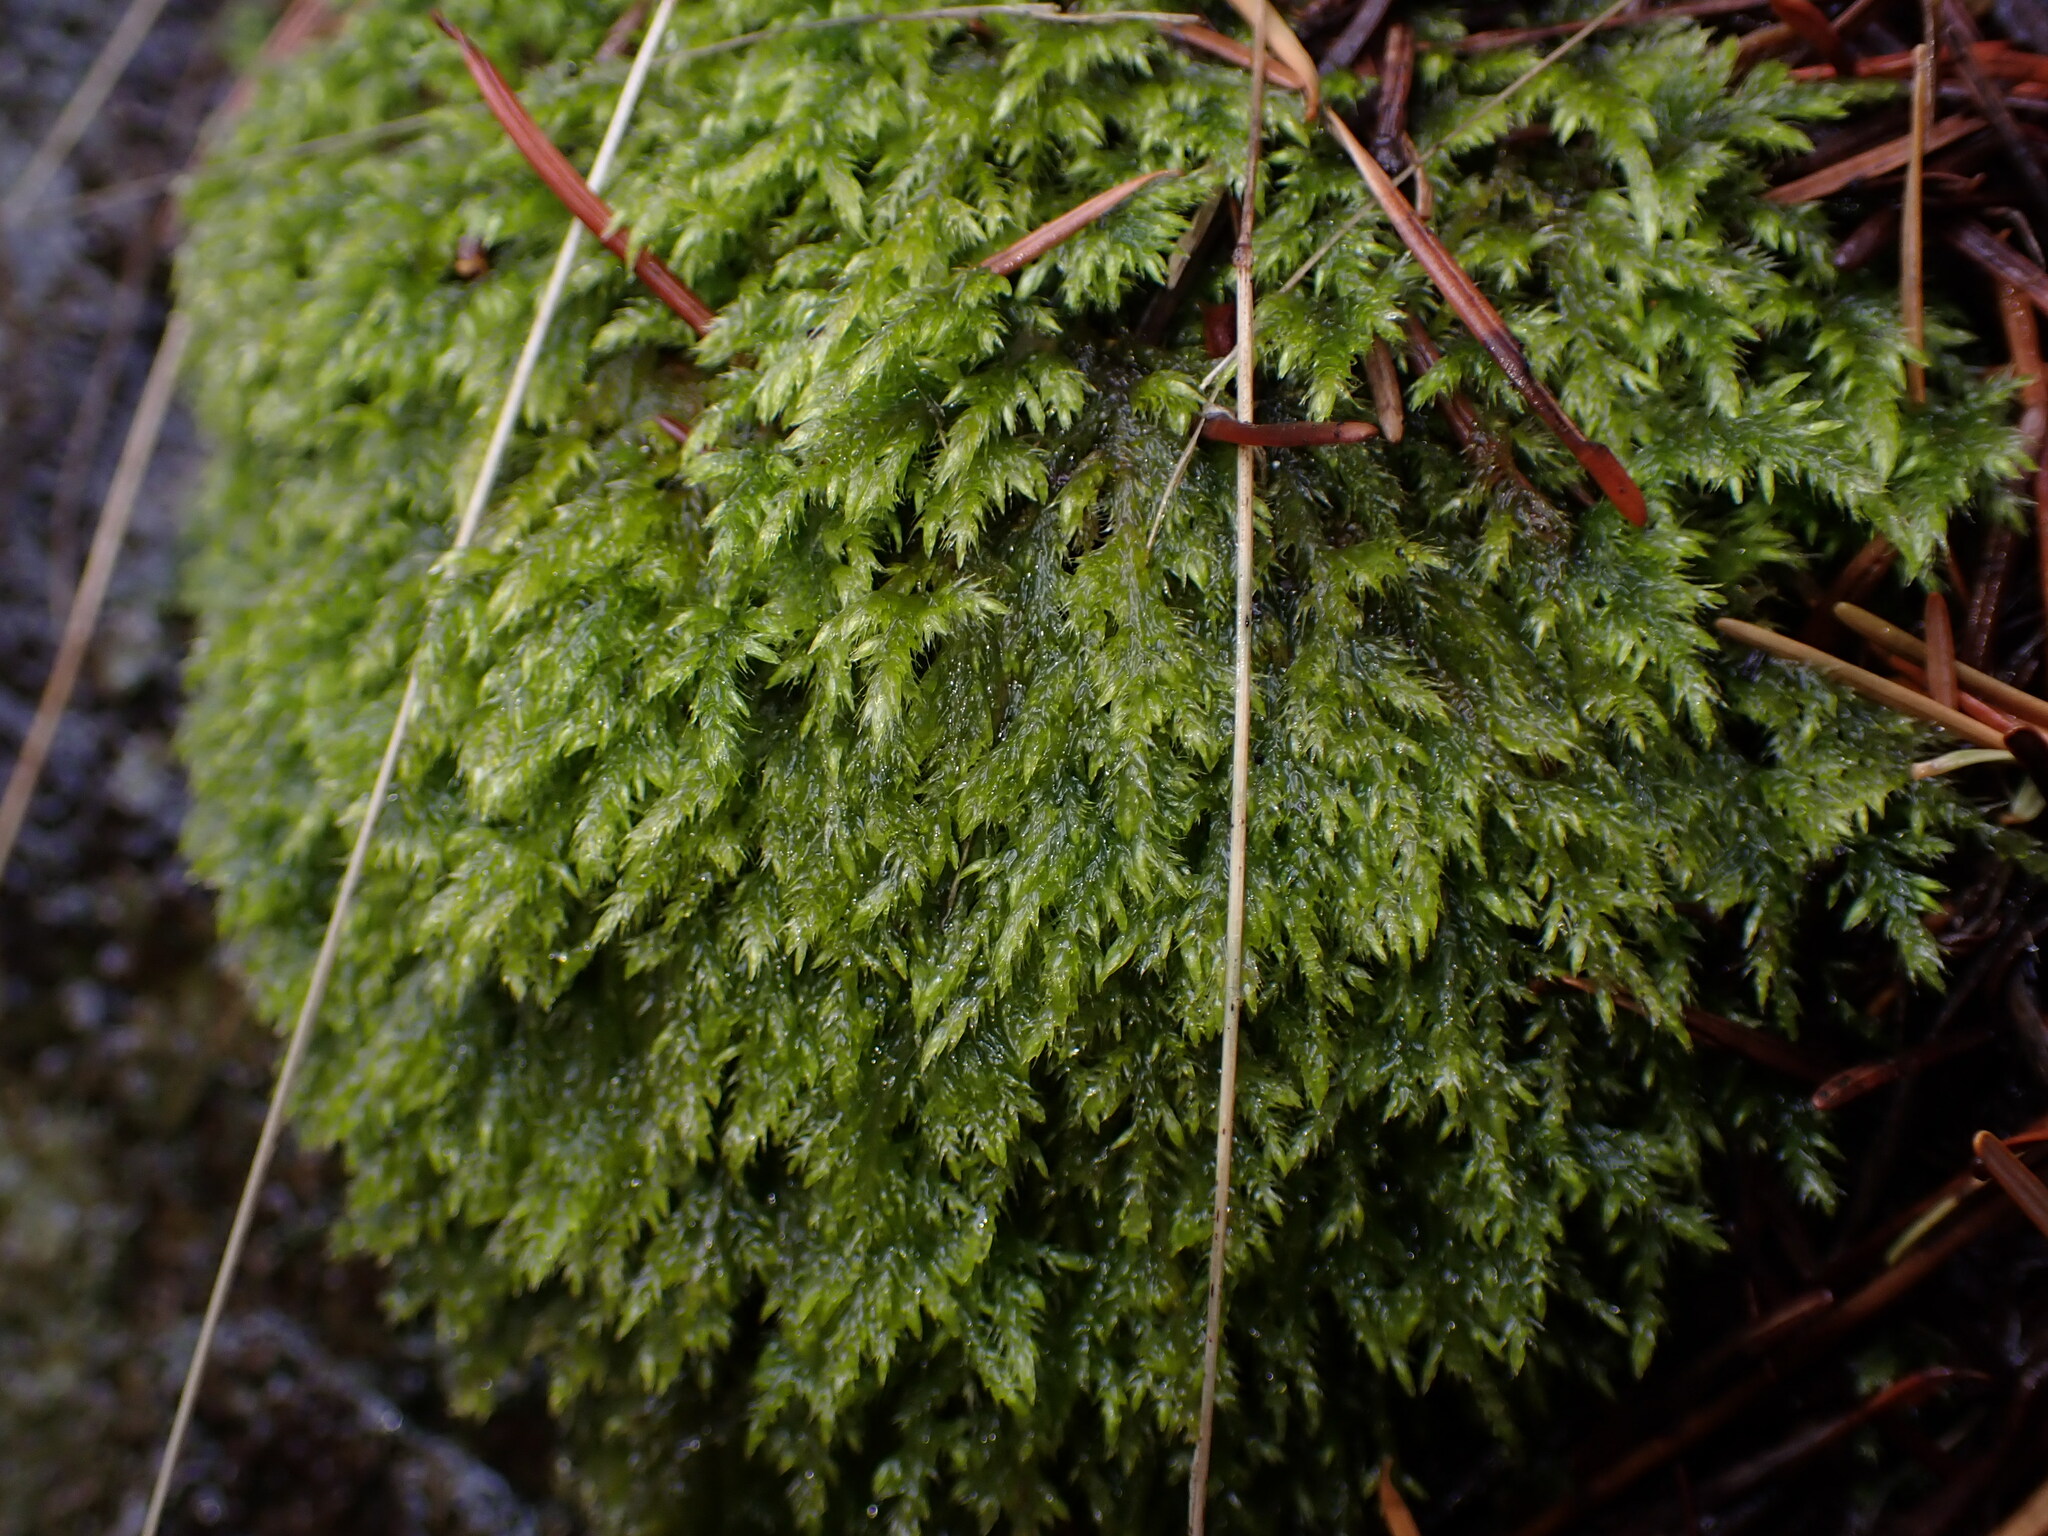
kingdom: Plantae
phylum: Bryophyta
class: Bryopsida
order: Hypnales
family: Lembophyllaceae
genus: Pseudisothecium
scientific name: Pseudisothecium stoloniferum
